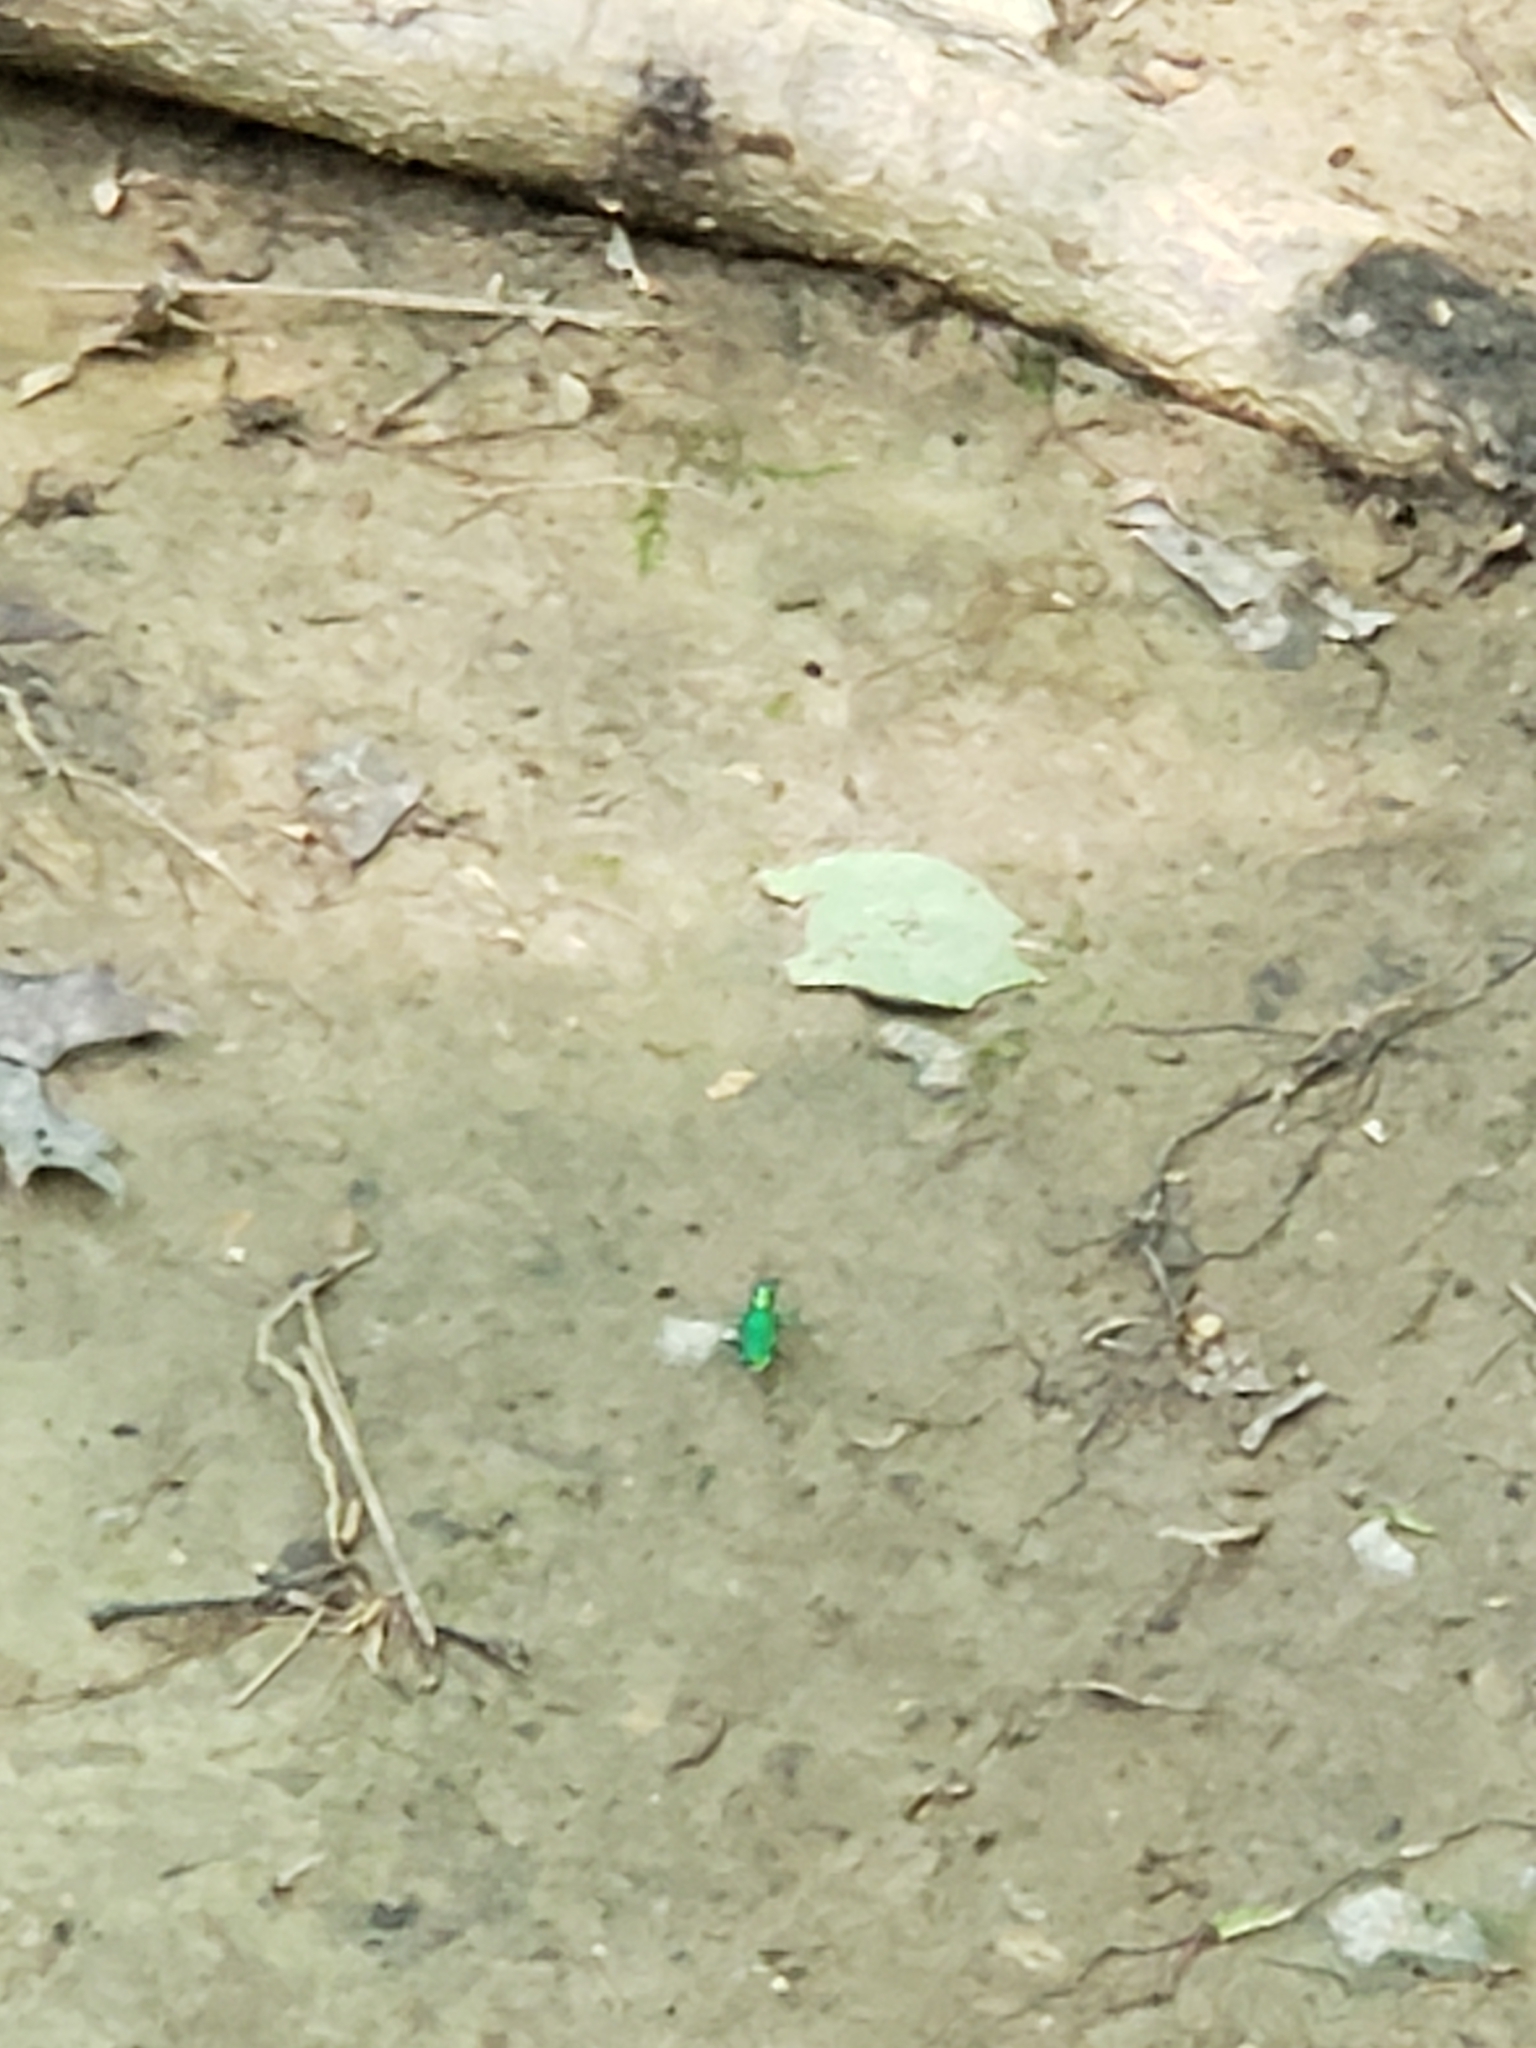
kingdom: Animalia
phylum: Arthropoda
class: Insecta
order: Coleoptera
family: Carabidae
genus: Cicindela
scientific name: Cicindela sexguttata
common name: Six-spotted tiger beetle
